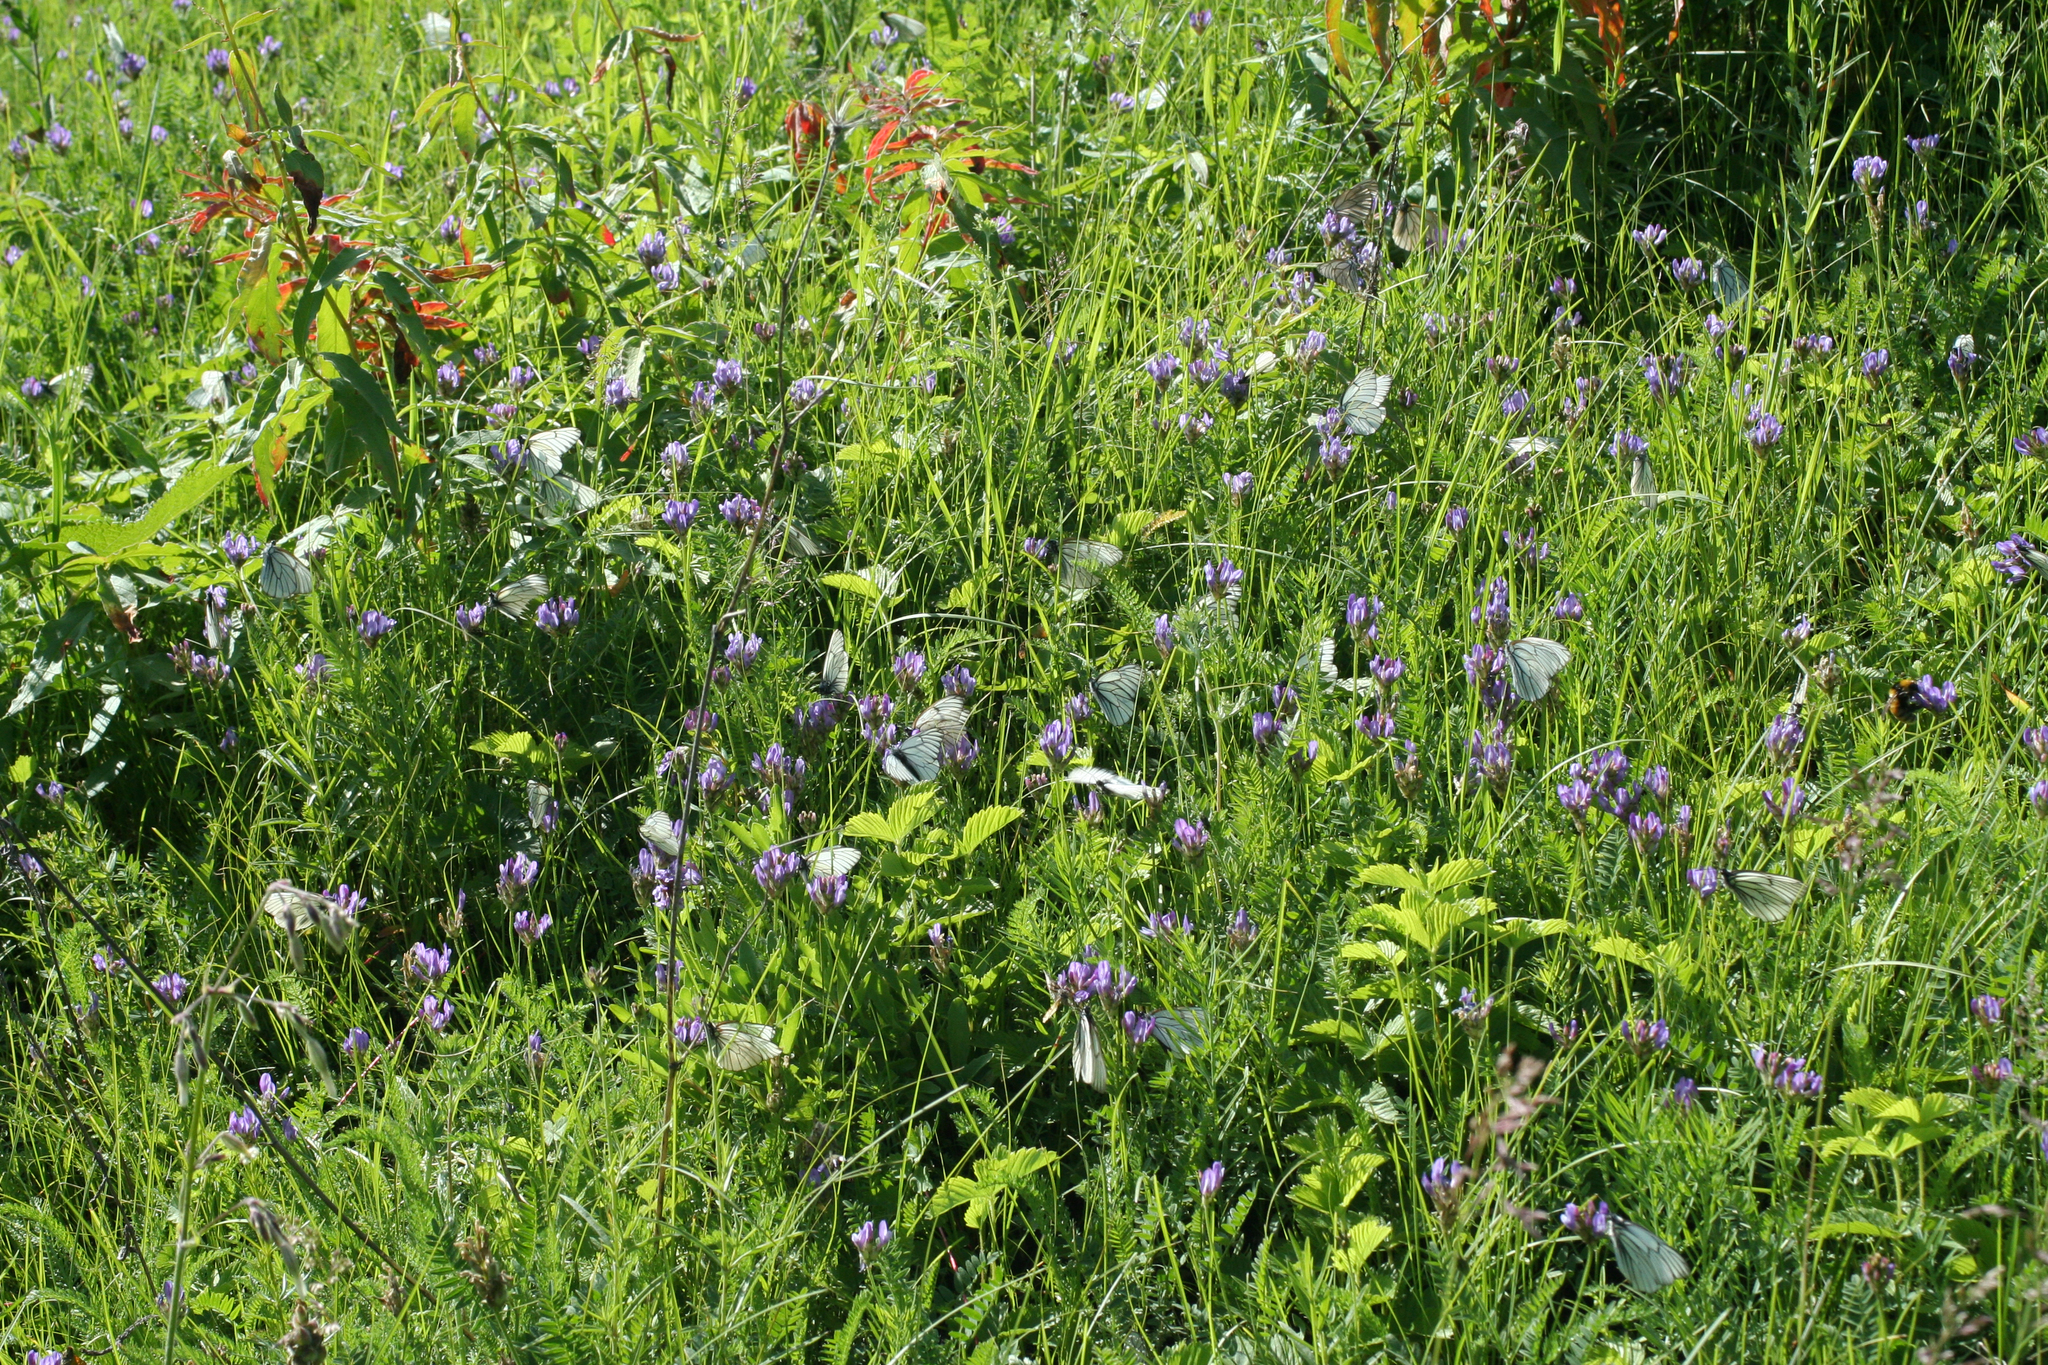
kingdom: Plantae
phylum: Tracheophyta
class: Magnoliopsida
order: Fabales
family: Fabaceae
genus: Astragalus
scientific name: Astragalus danicus
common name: Purple milk-vetch
